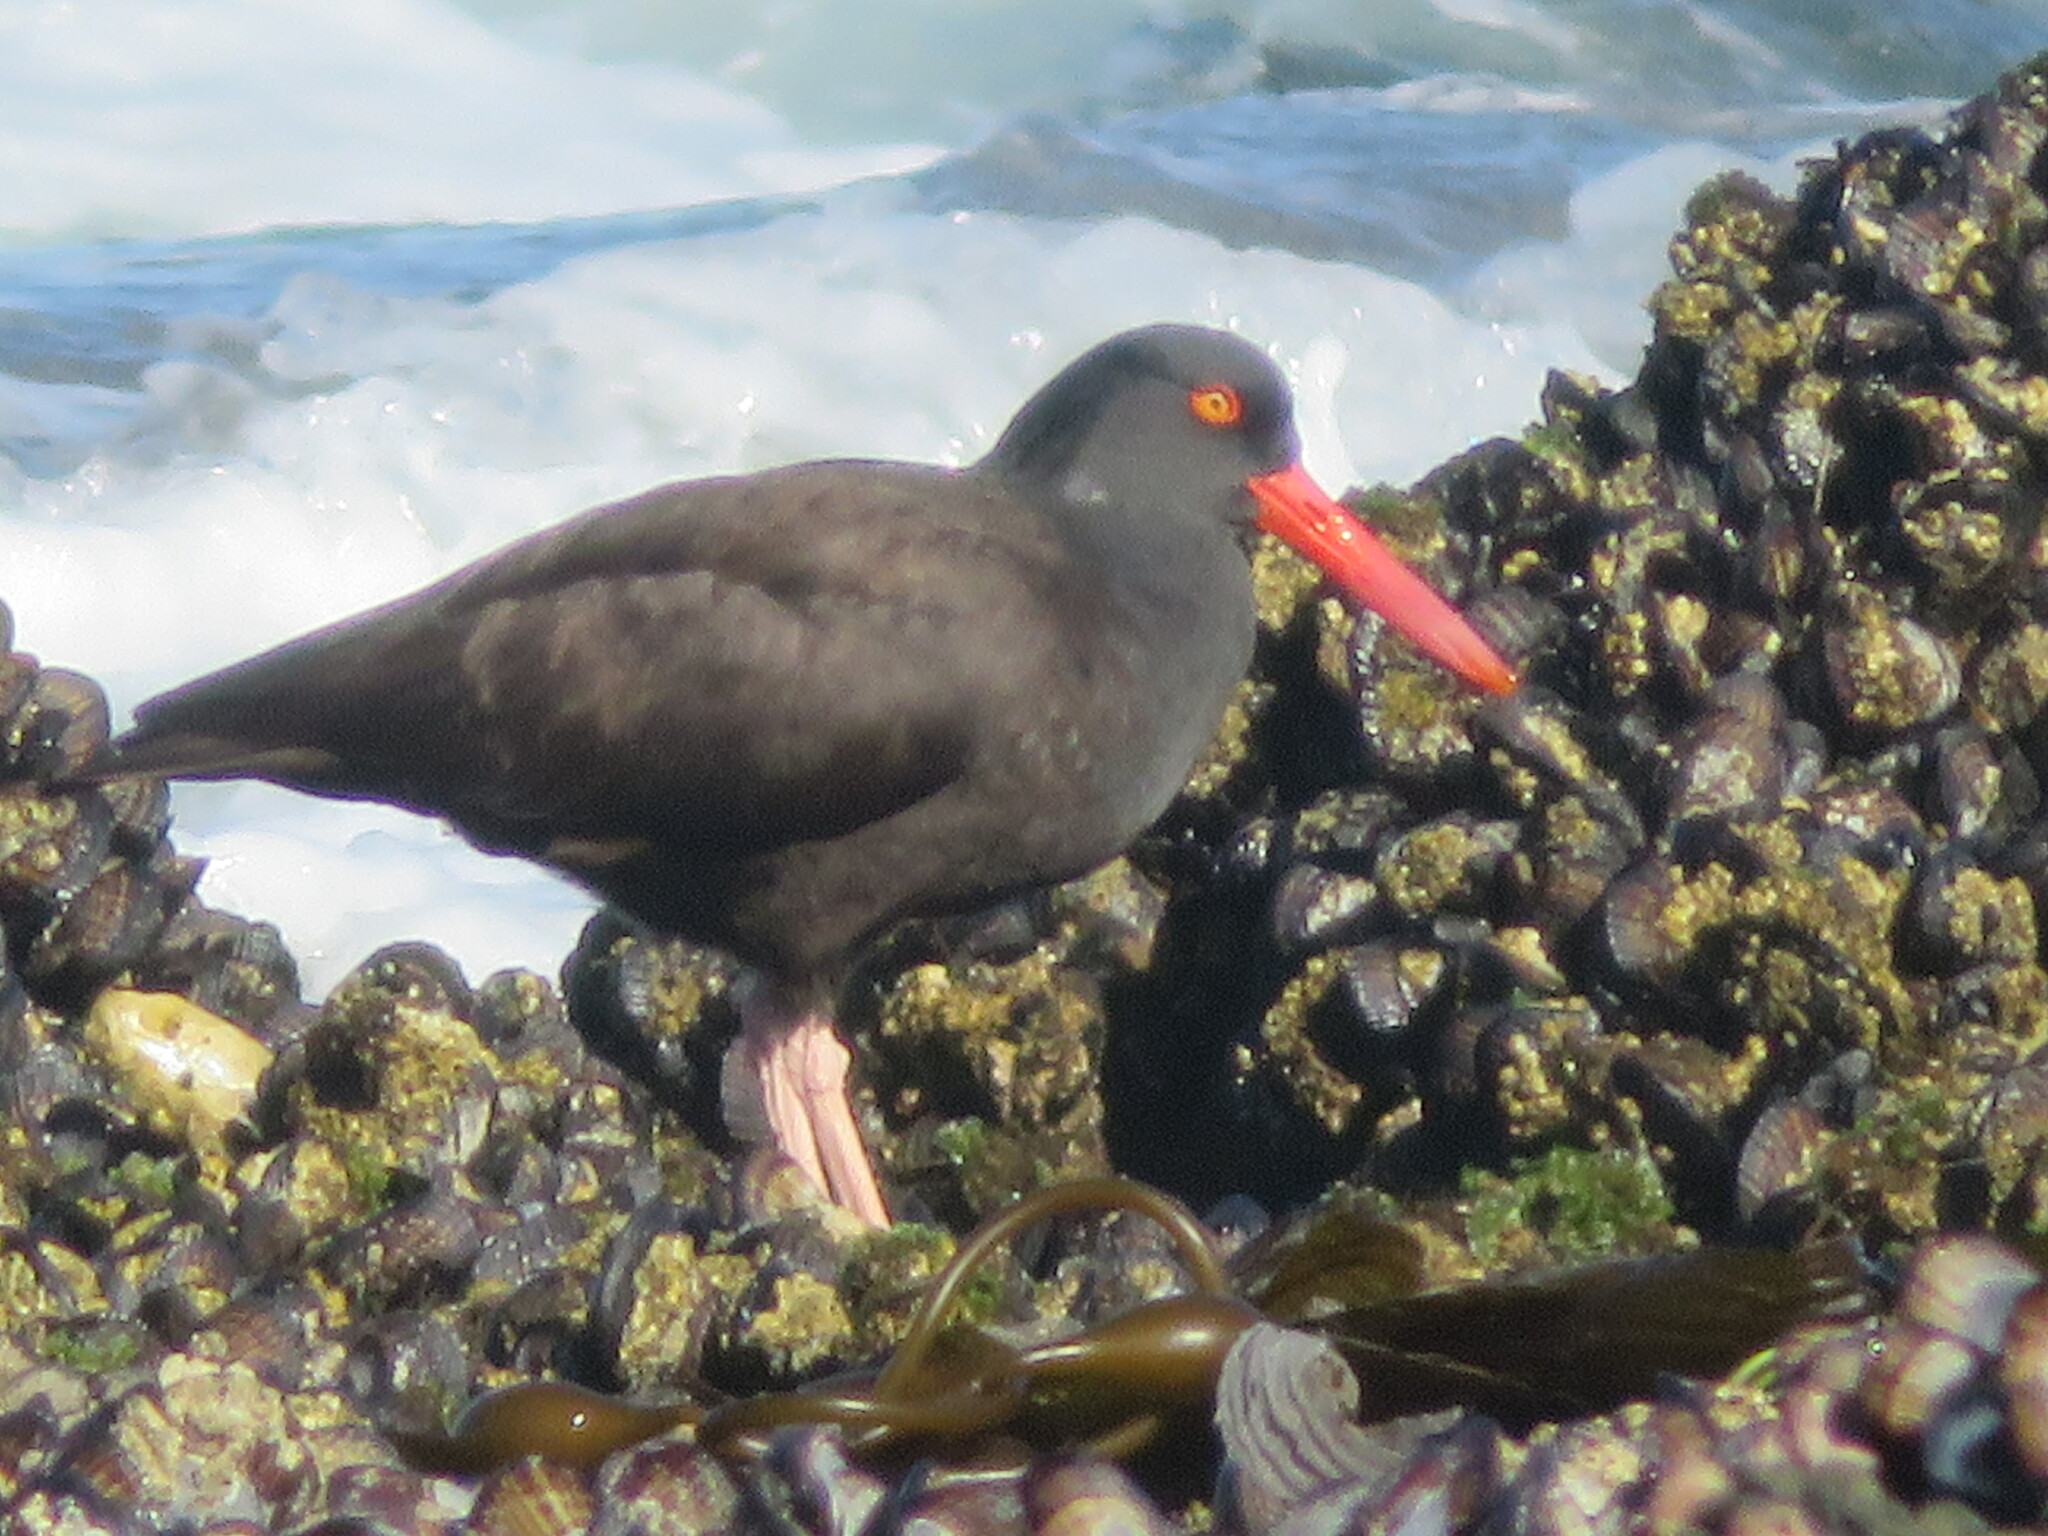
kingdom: Animalia
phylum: Chordata
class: Aves
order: Charadriiformes
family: Haematopodidae
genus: Haematopus
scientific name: Haematopus bachmani
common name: Black oystercatcher
